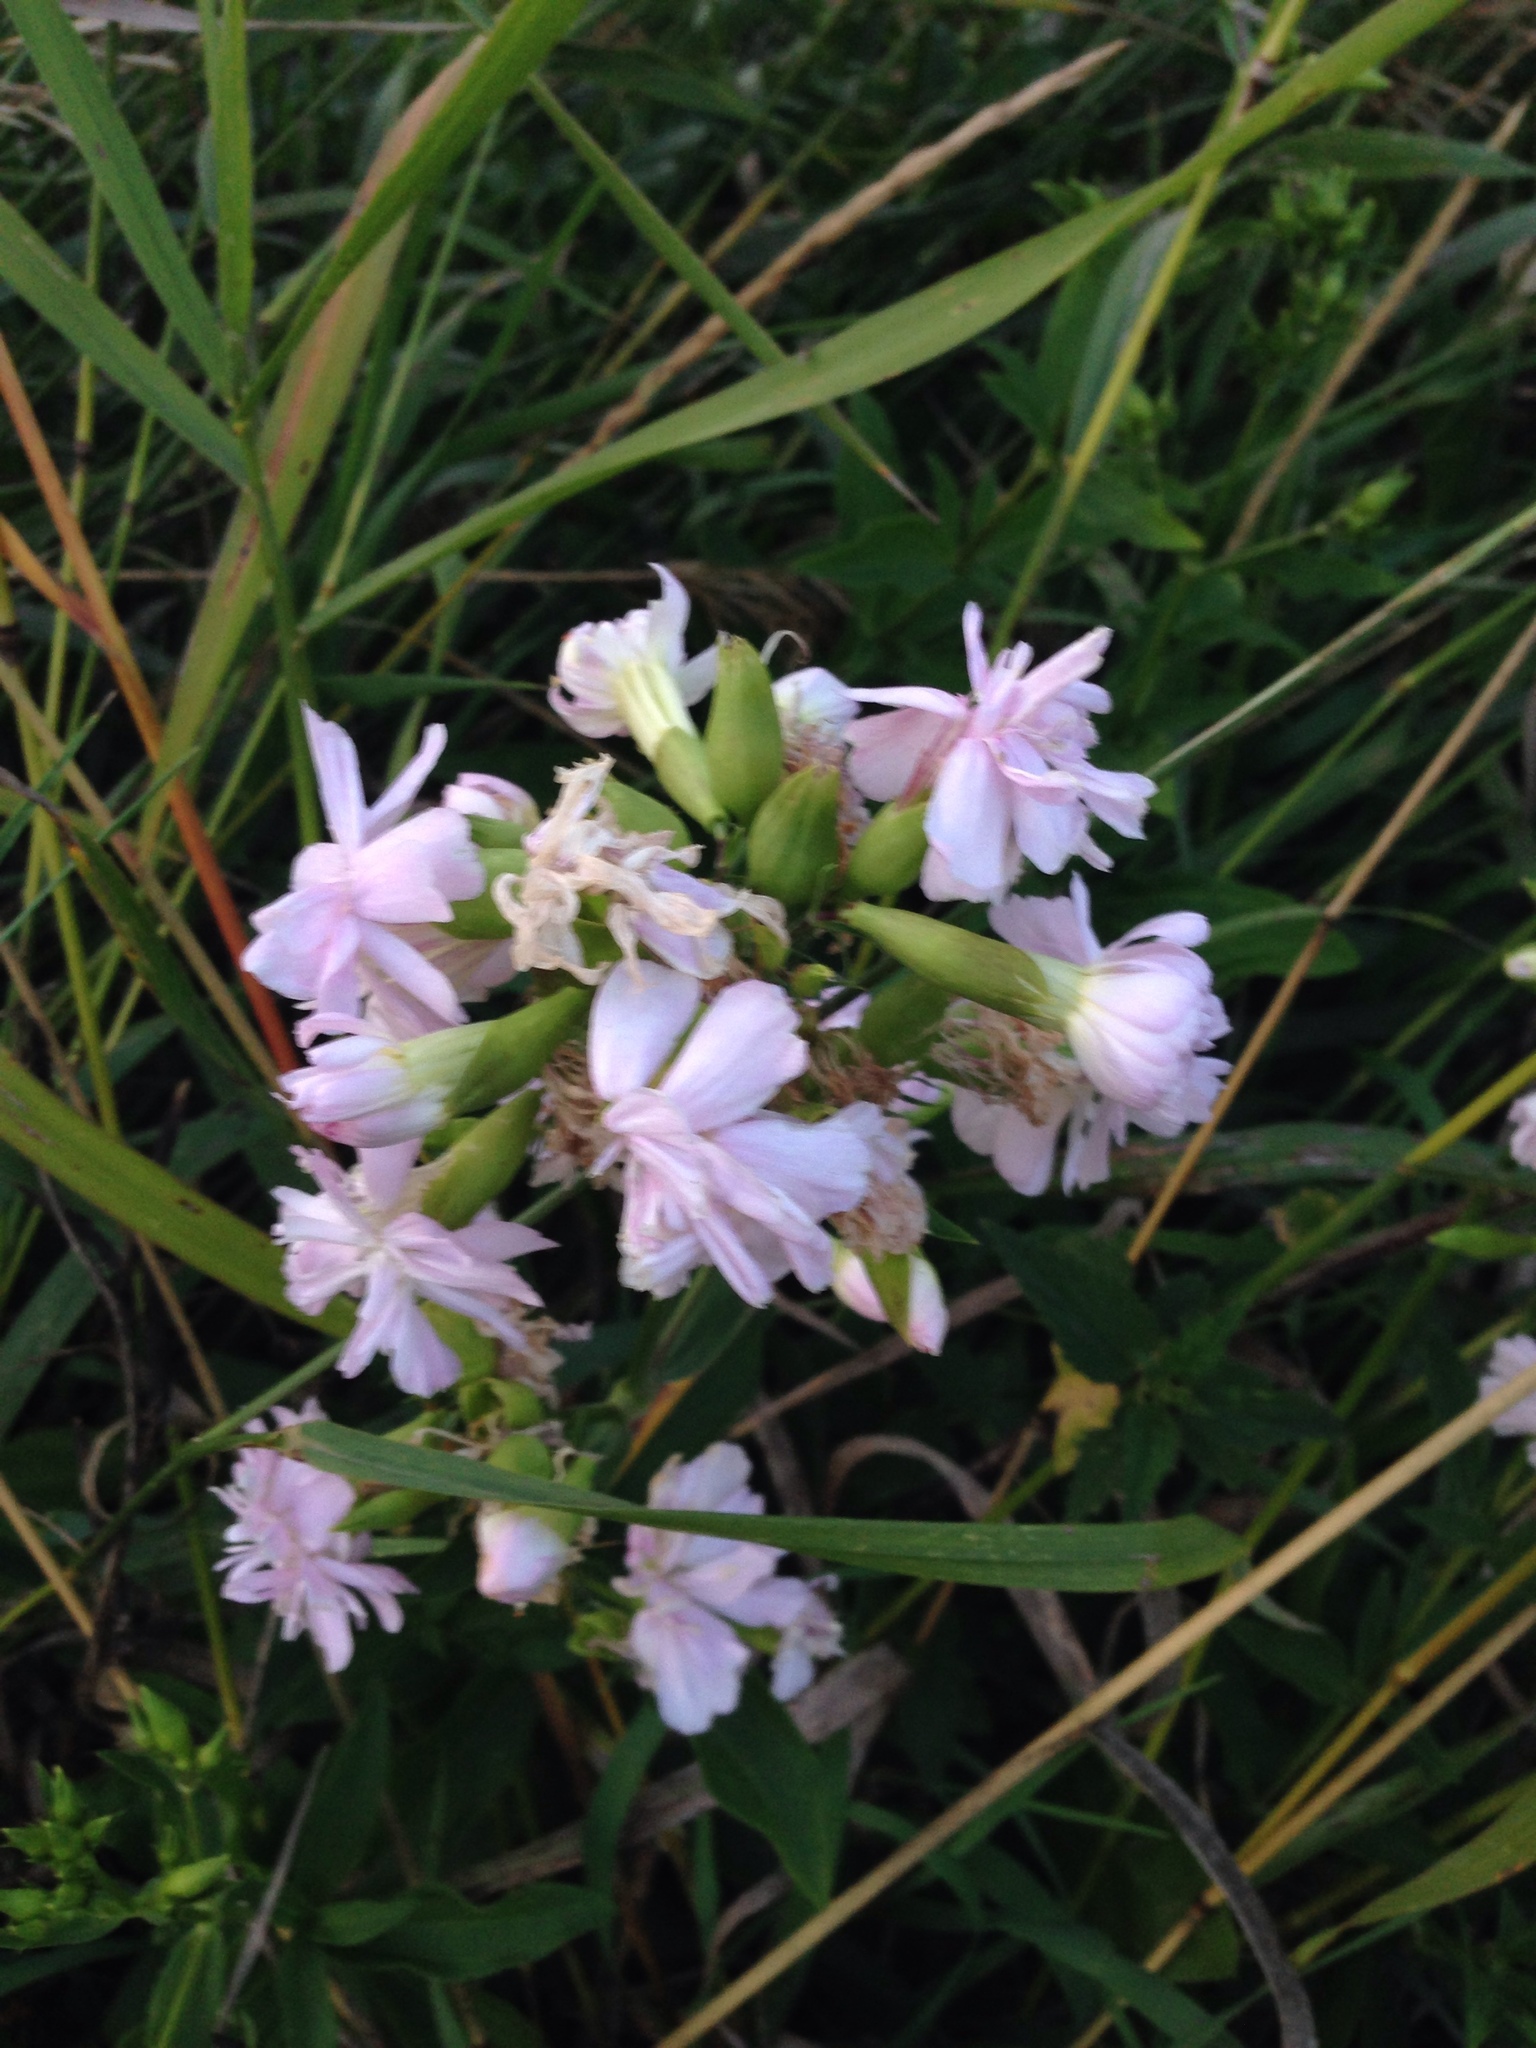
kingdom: Plantae
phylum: Tracheophyta
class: Magnoliopsida
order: Caryophyllales
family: Caryophyllaceae
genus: Saponaria
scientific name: Saponaria officinalis
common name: Soapwort
